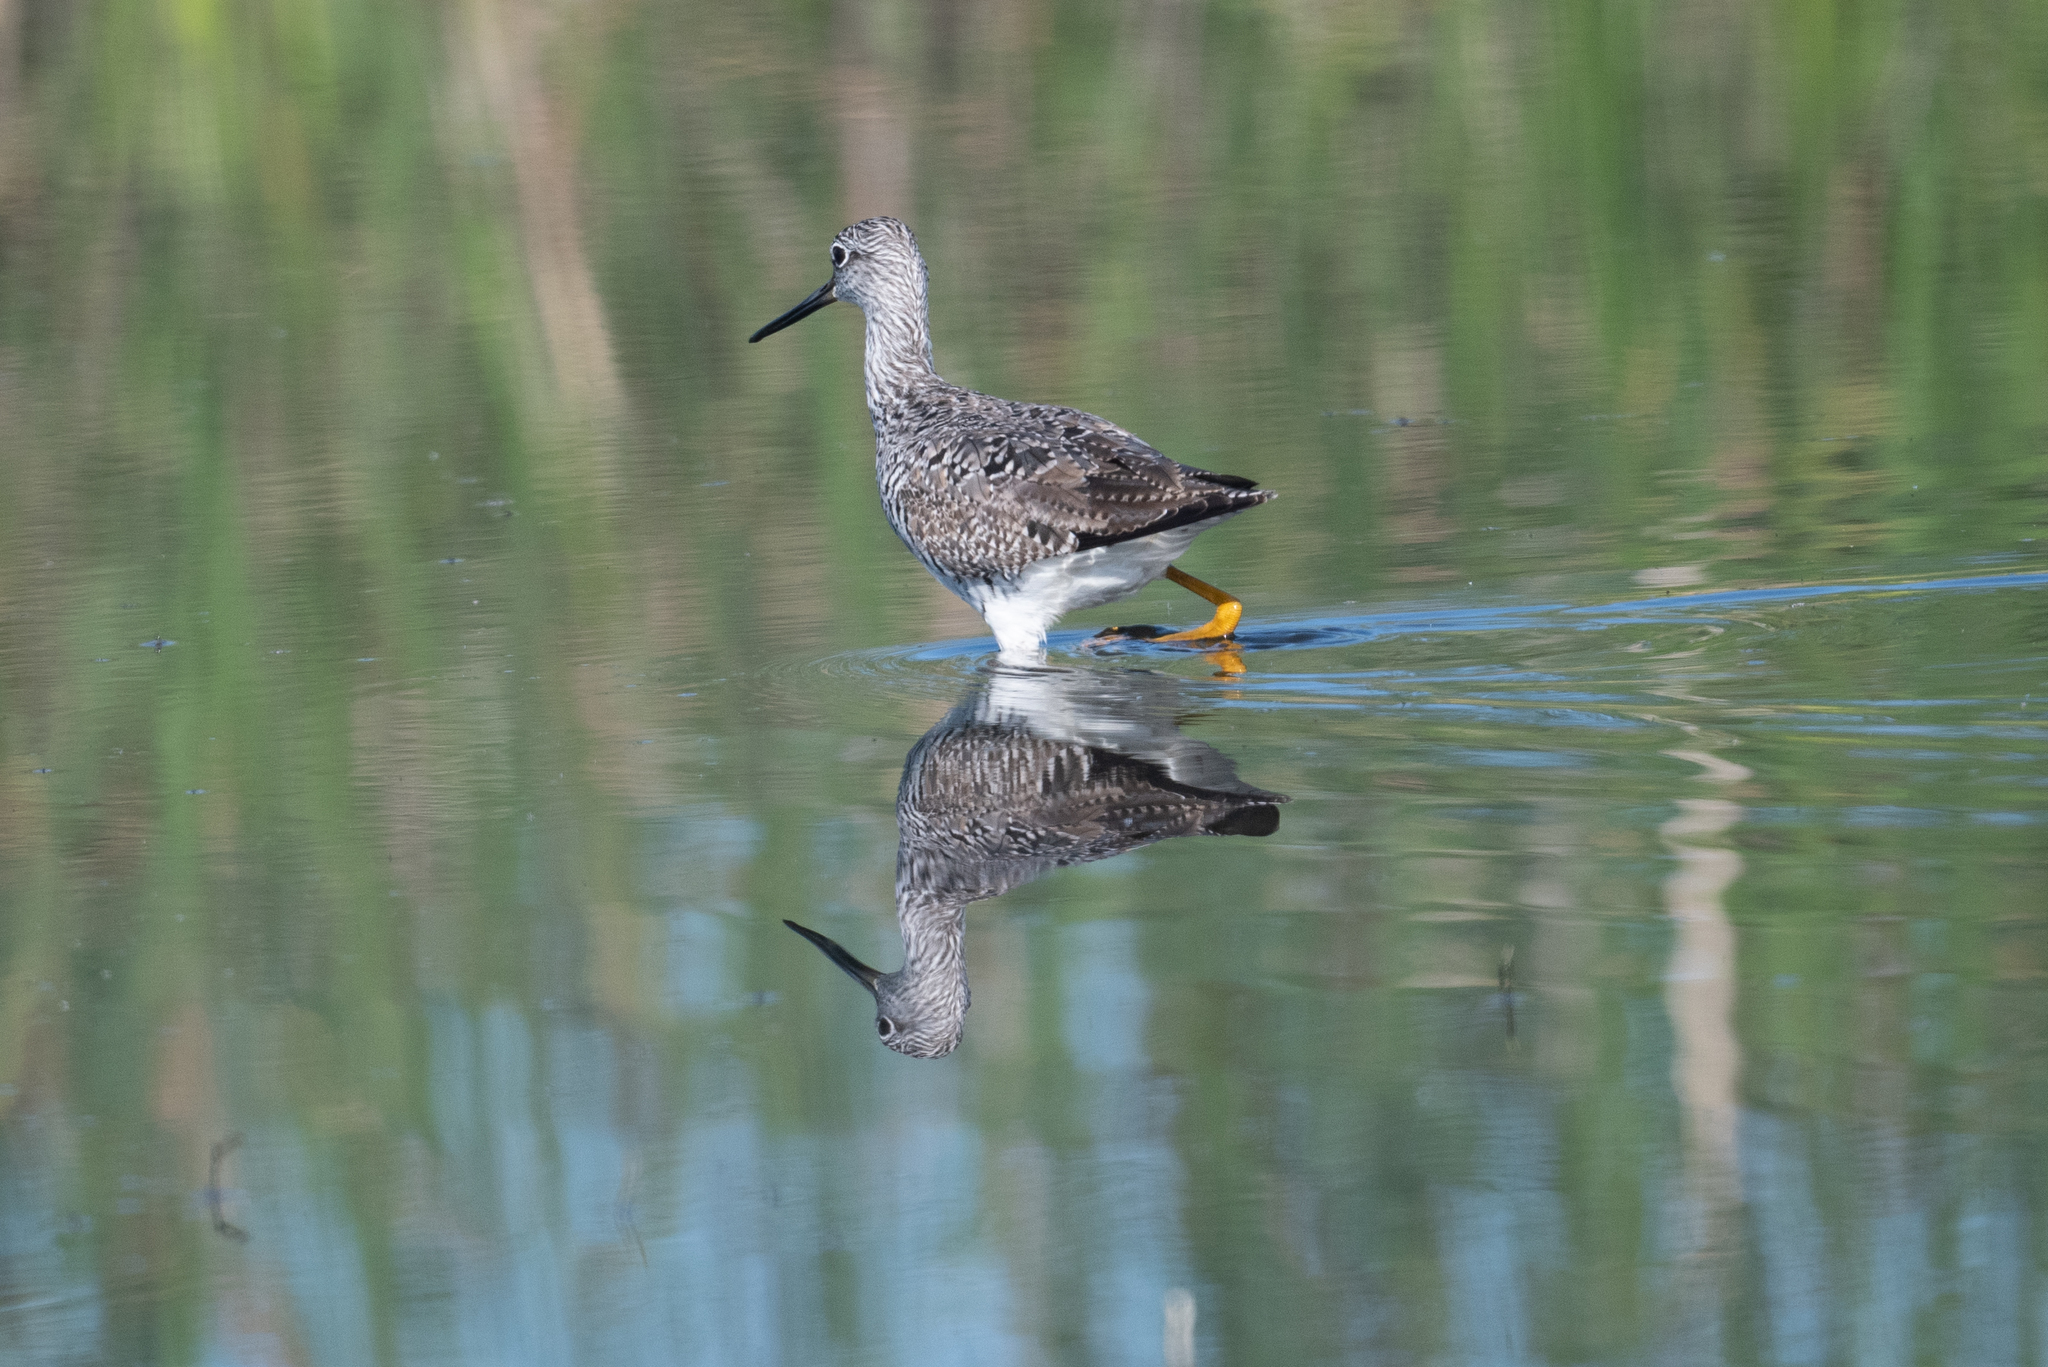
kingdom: Animalia
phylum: Chordata
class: Aves
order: Charadriiformes
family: Scolopacidae
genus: Tringa
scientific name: Tringa melanoleuca
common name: Greater yellowlegs
